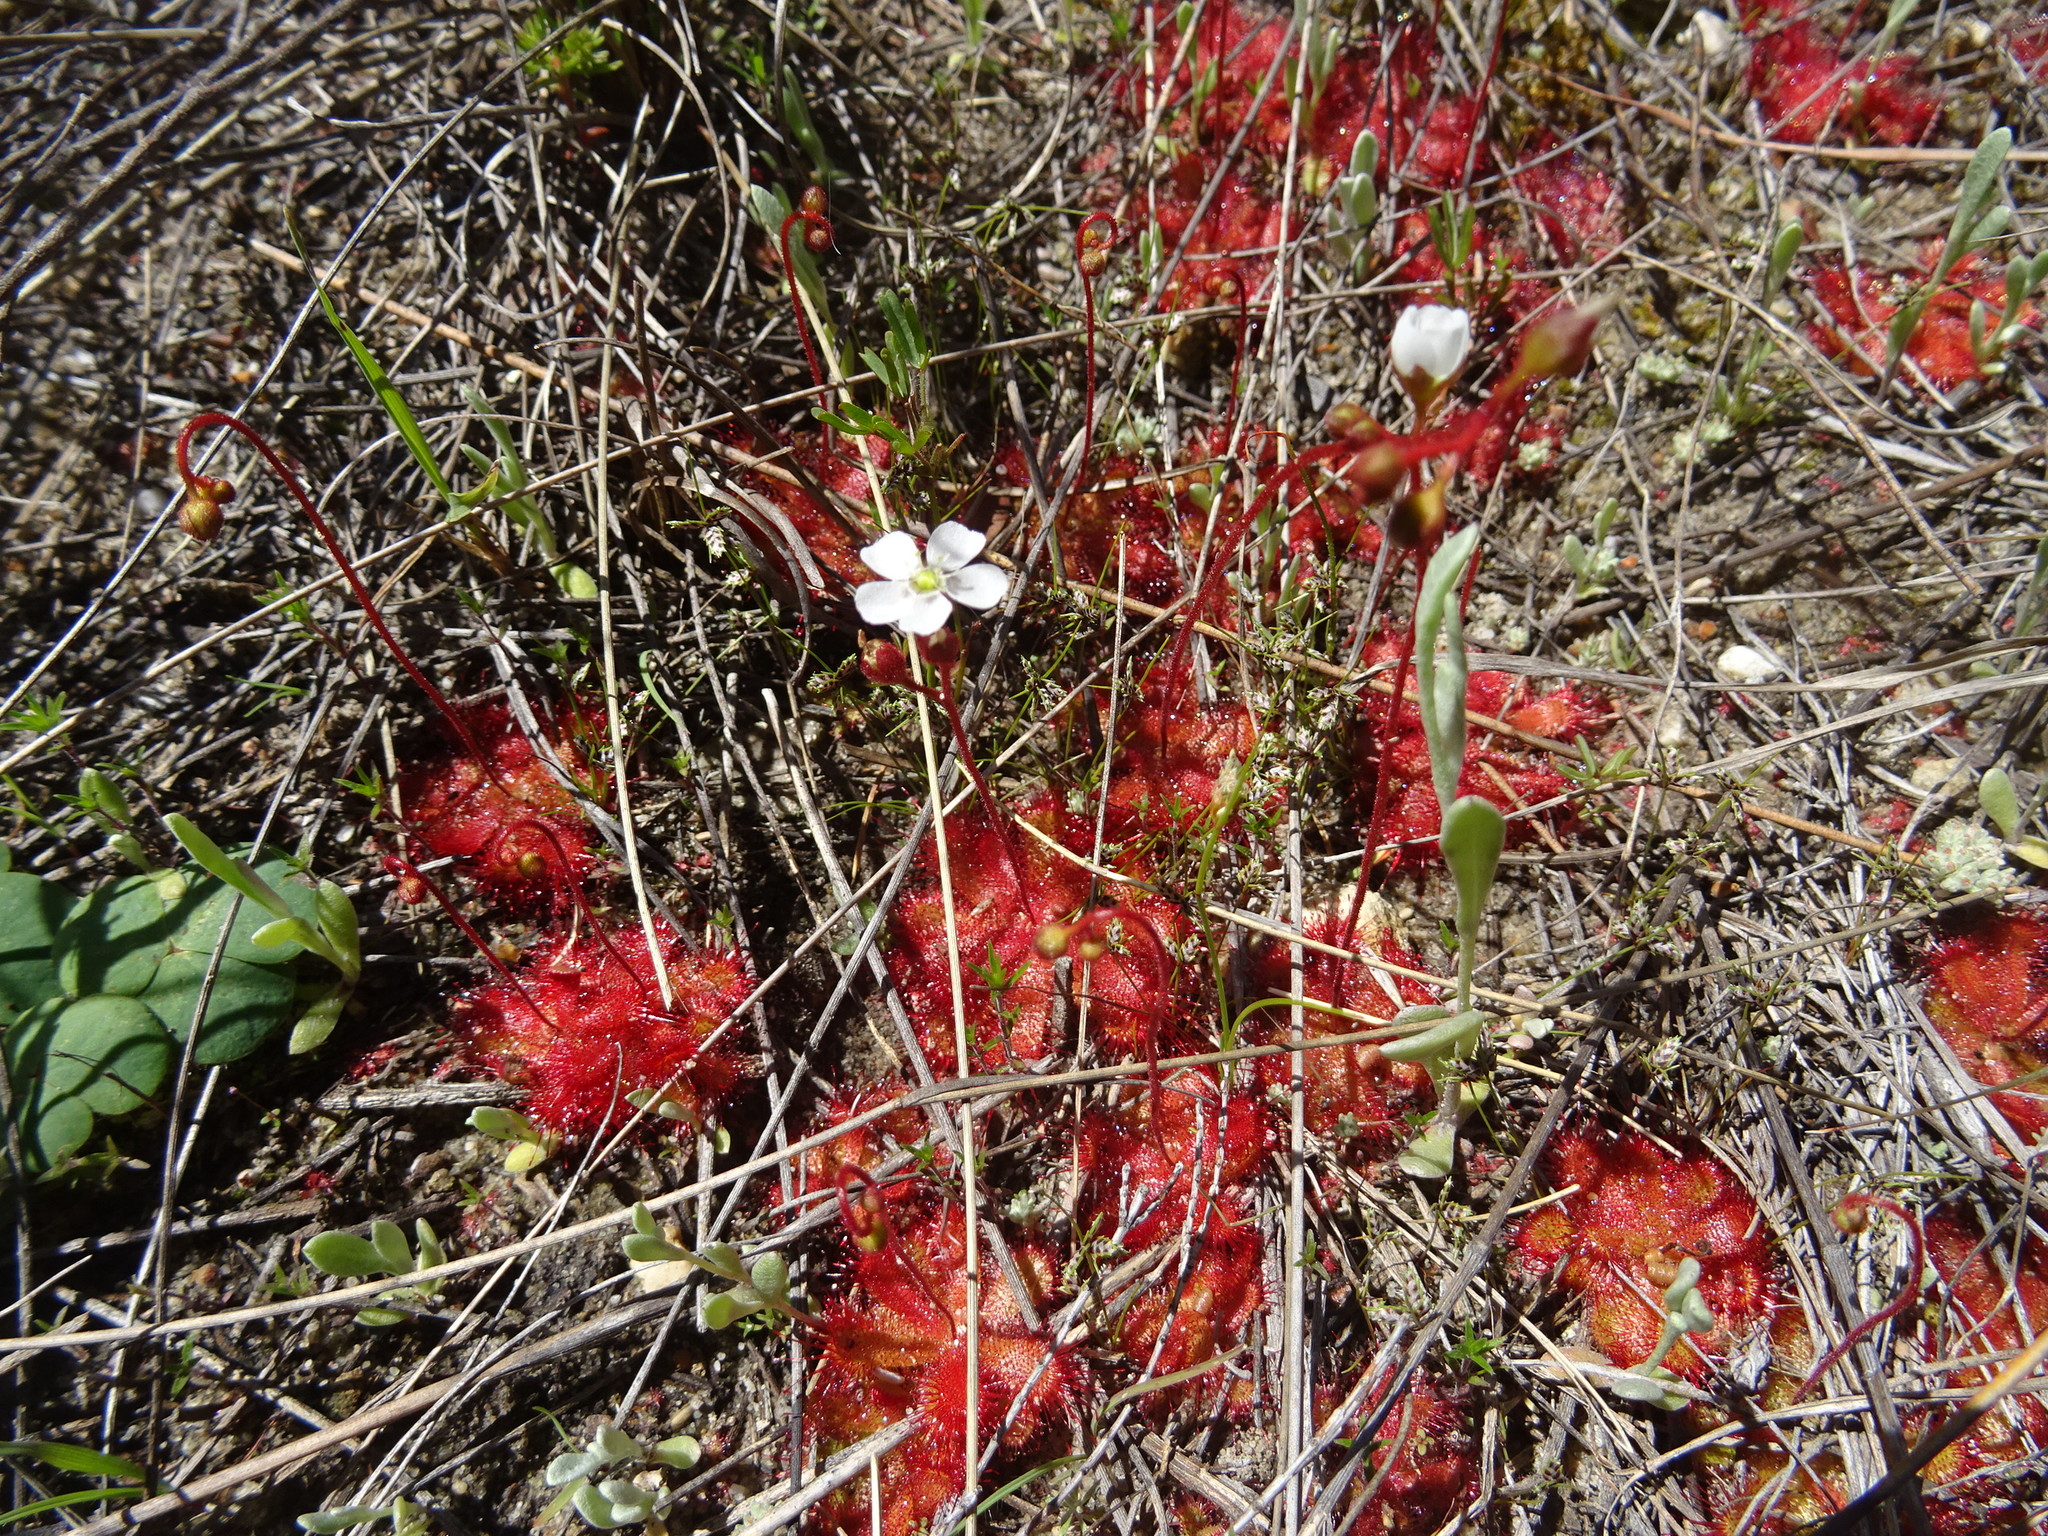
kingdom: Plantae
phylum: Tracheophyta
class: Magnoliopsida
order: Caryophyllales
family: Droseraceae
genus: Drosera
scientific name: Drosera trinervia
